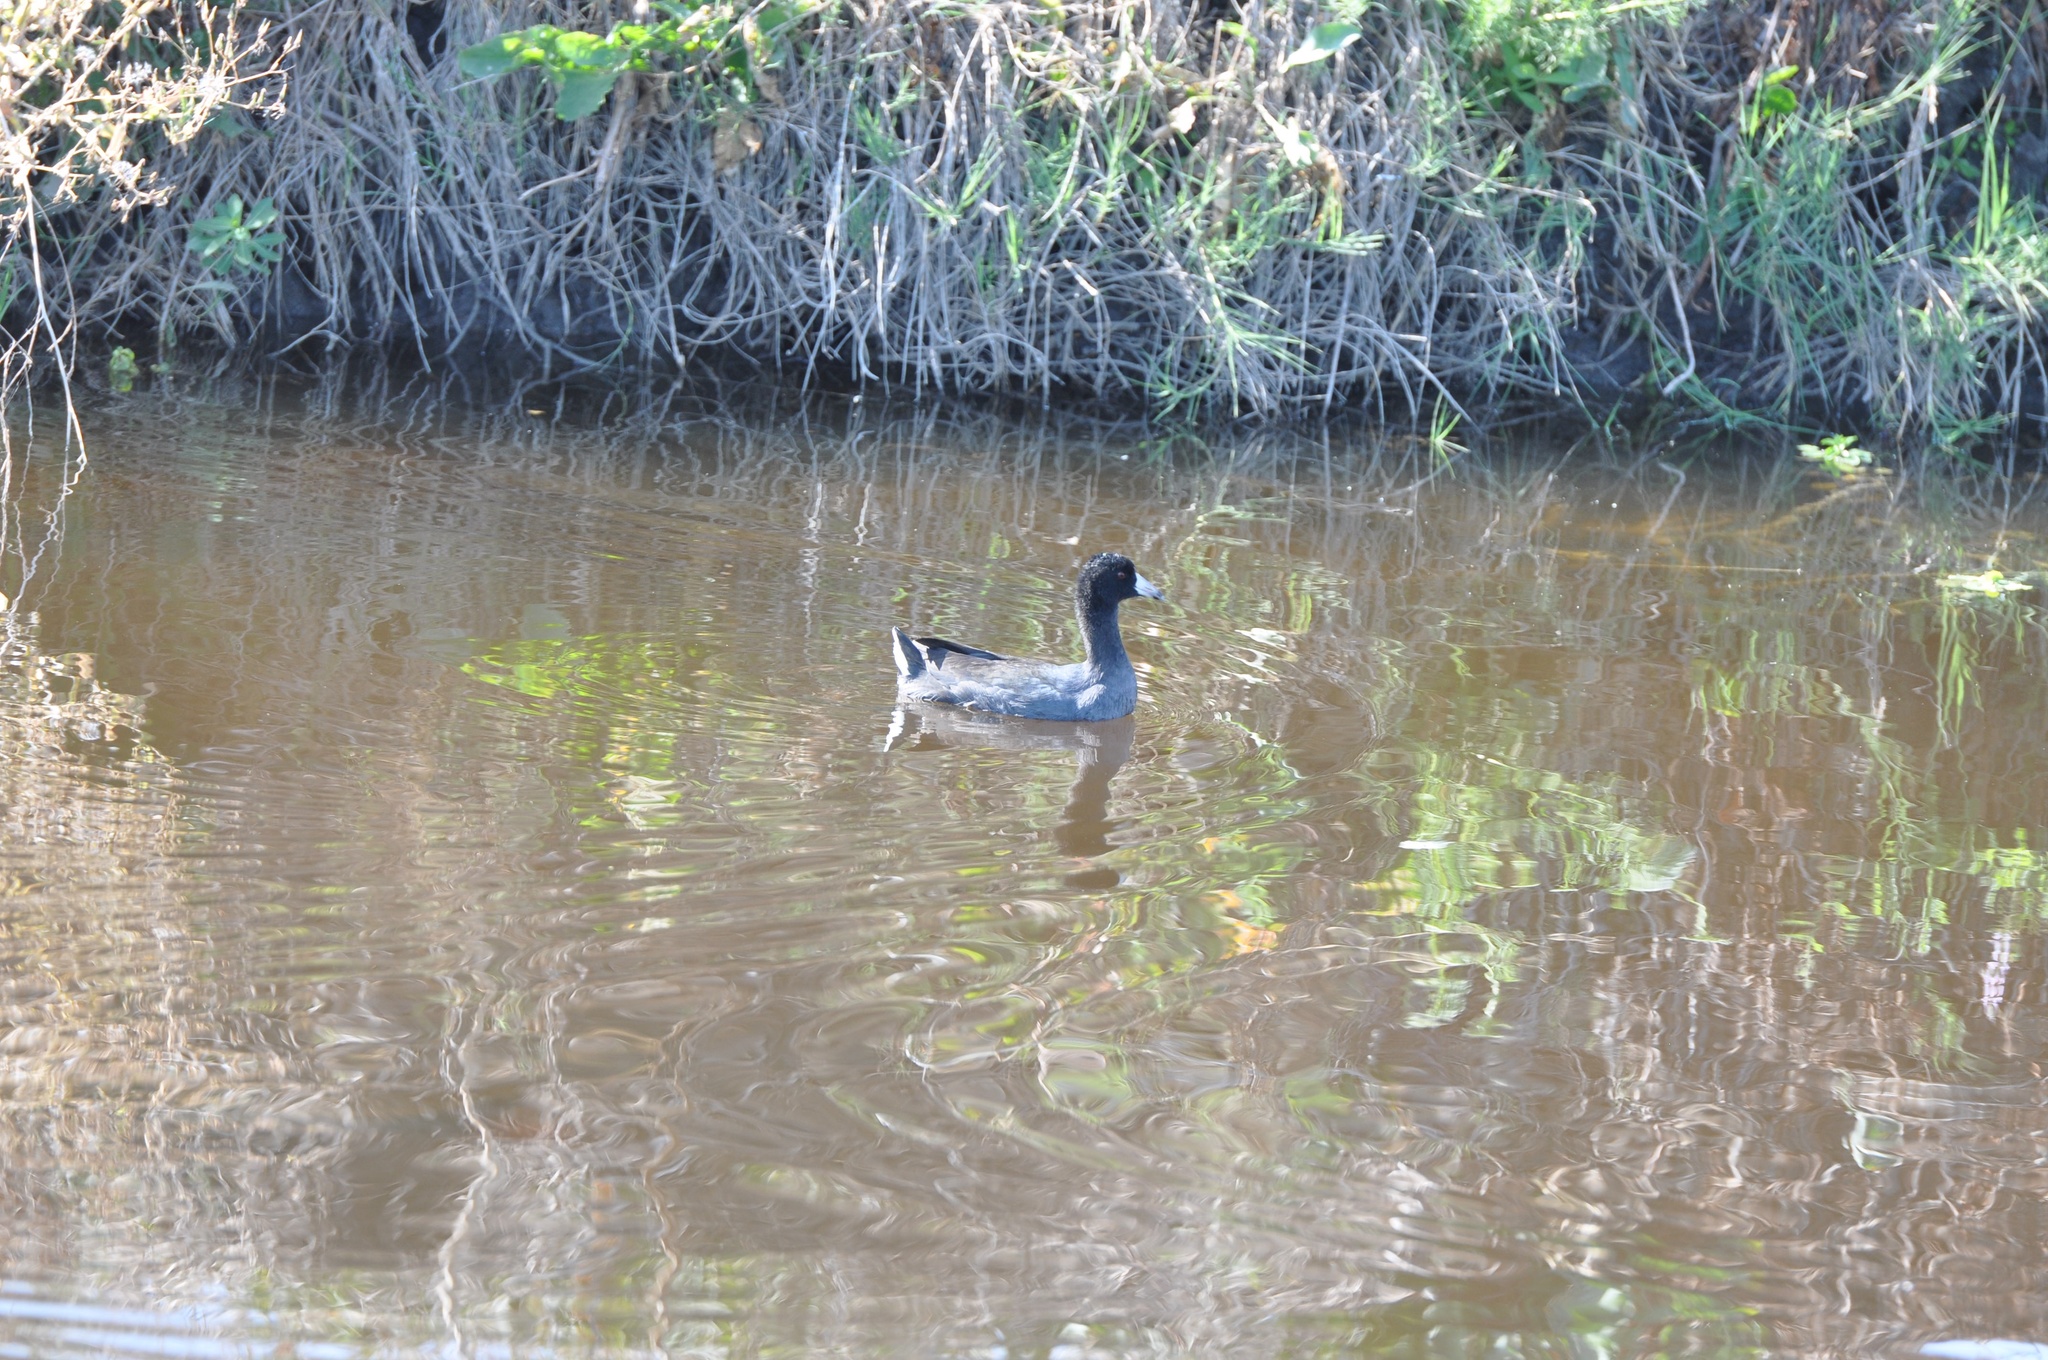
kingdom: Animalia
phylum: Chordata
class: Aves
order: Gruiformes
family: Rallidae
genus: Fulica
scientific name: Fulica americana
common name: American coot
